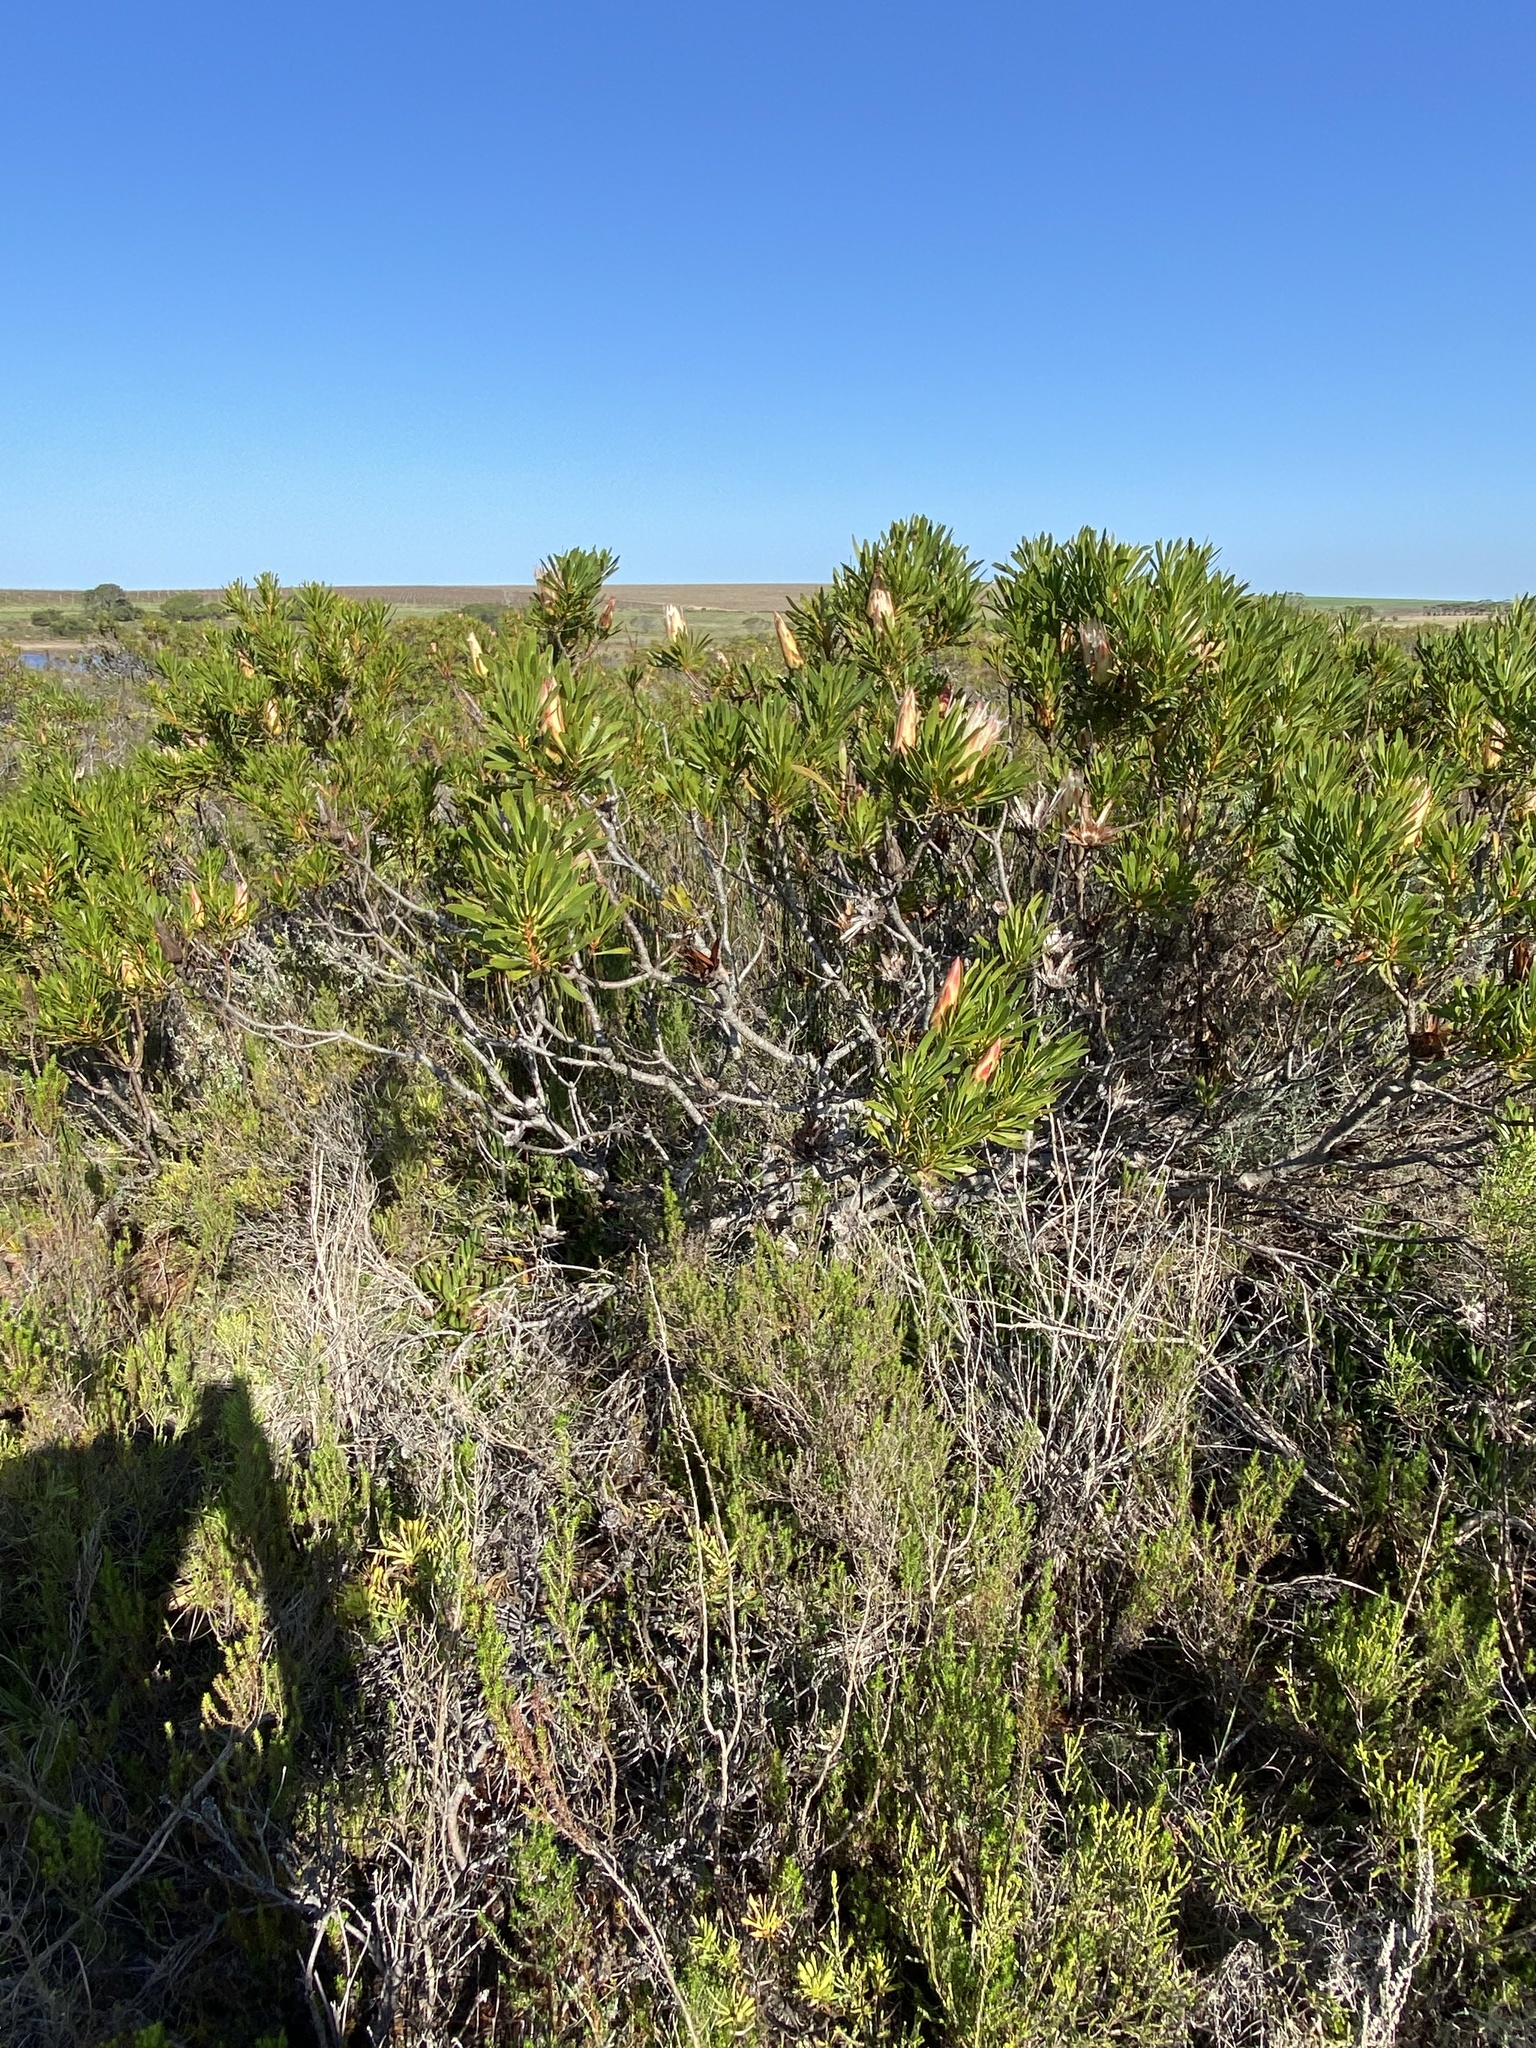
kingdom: Plantae
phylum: Tracheophyta
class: Magnoliopsida
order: Proteales
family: Proteaceae
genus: Protea
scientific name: Protea repens
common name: Sugarbush
